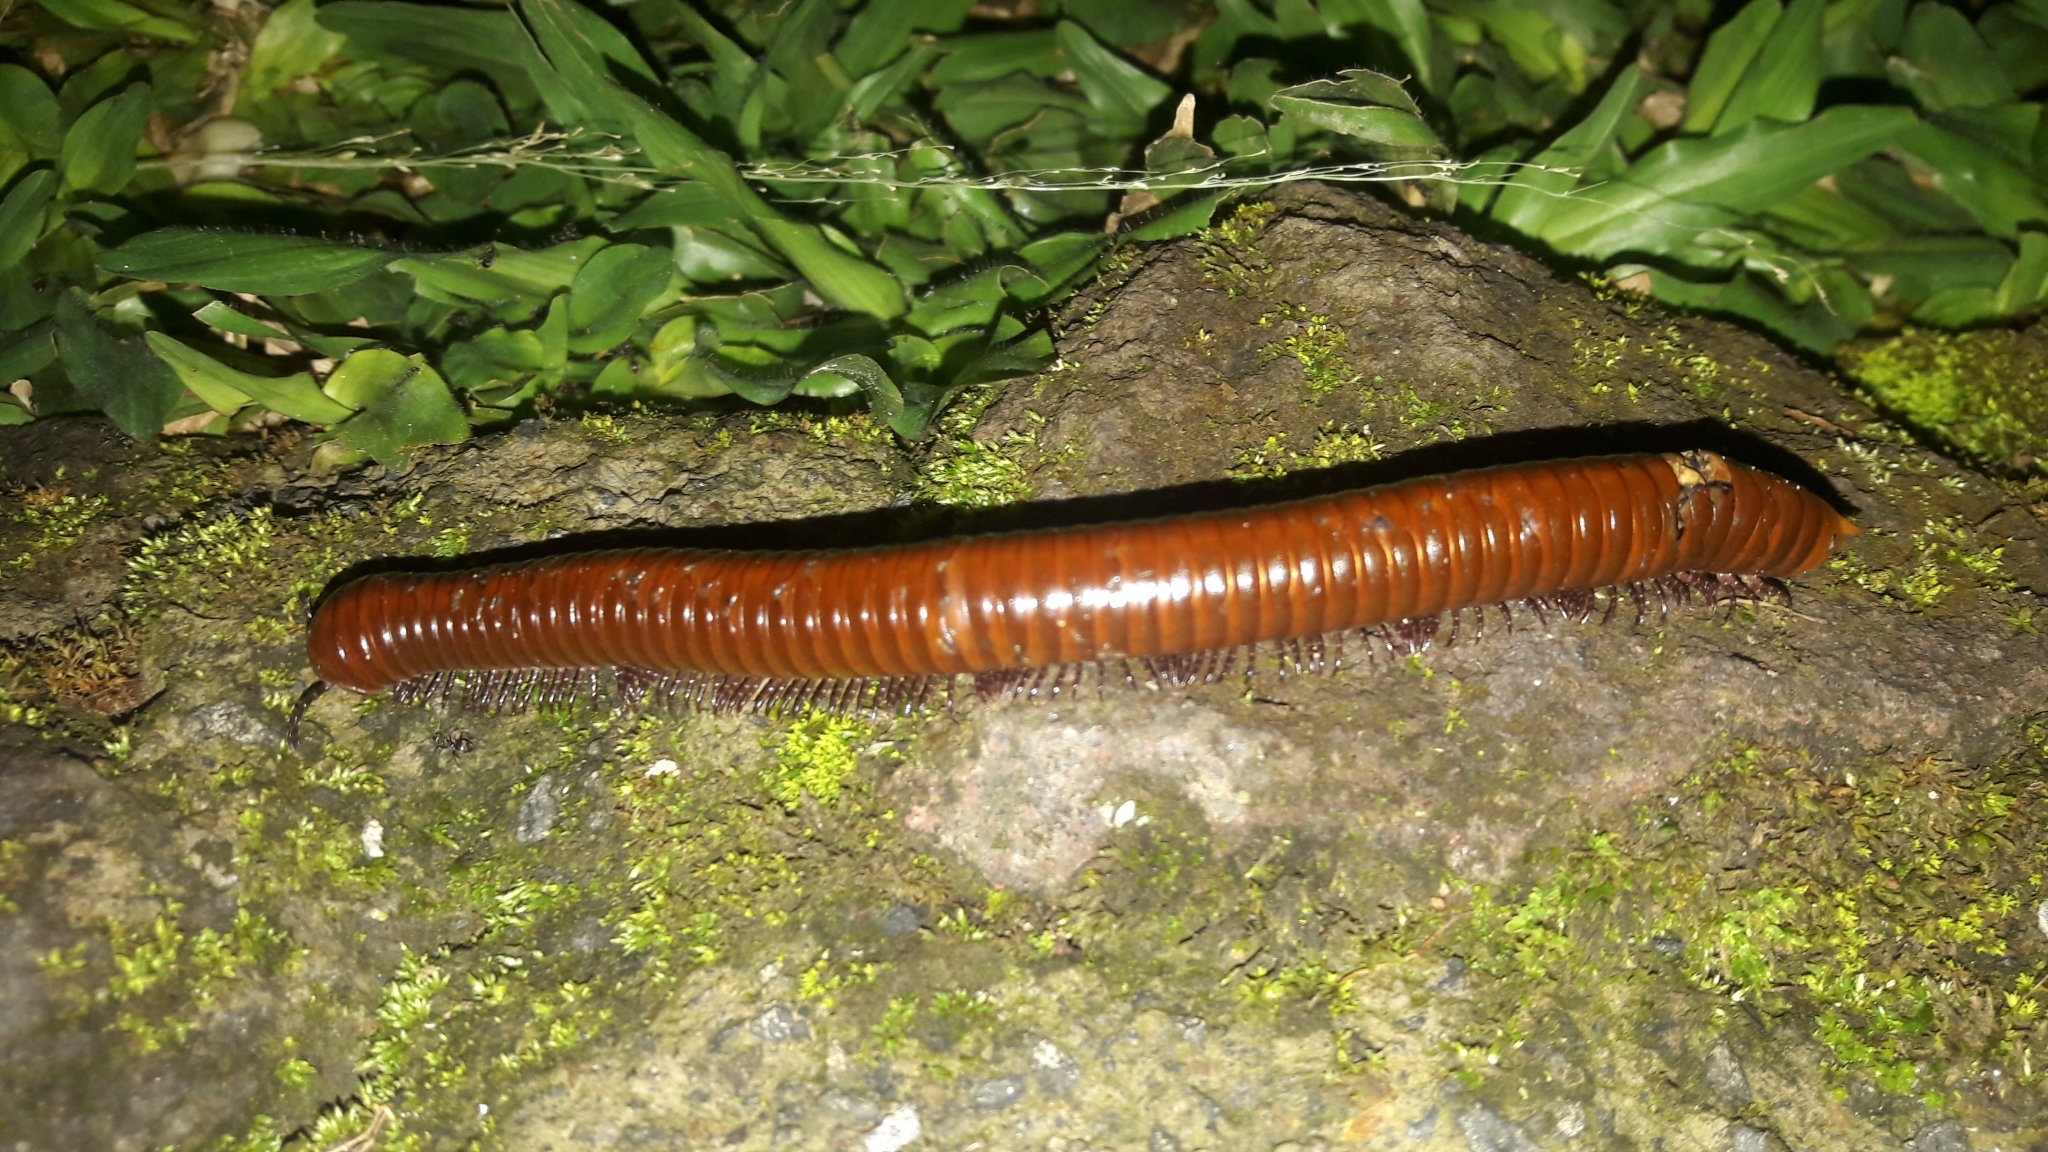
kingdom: Animalia
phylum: Arthropoda
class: Diplopoda
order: Spirobolida
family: Pachybolidae
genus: Trigoniulus
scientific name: Trigoniulus corallinus
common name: Millipede
